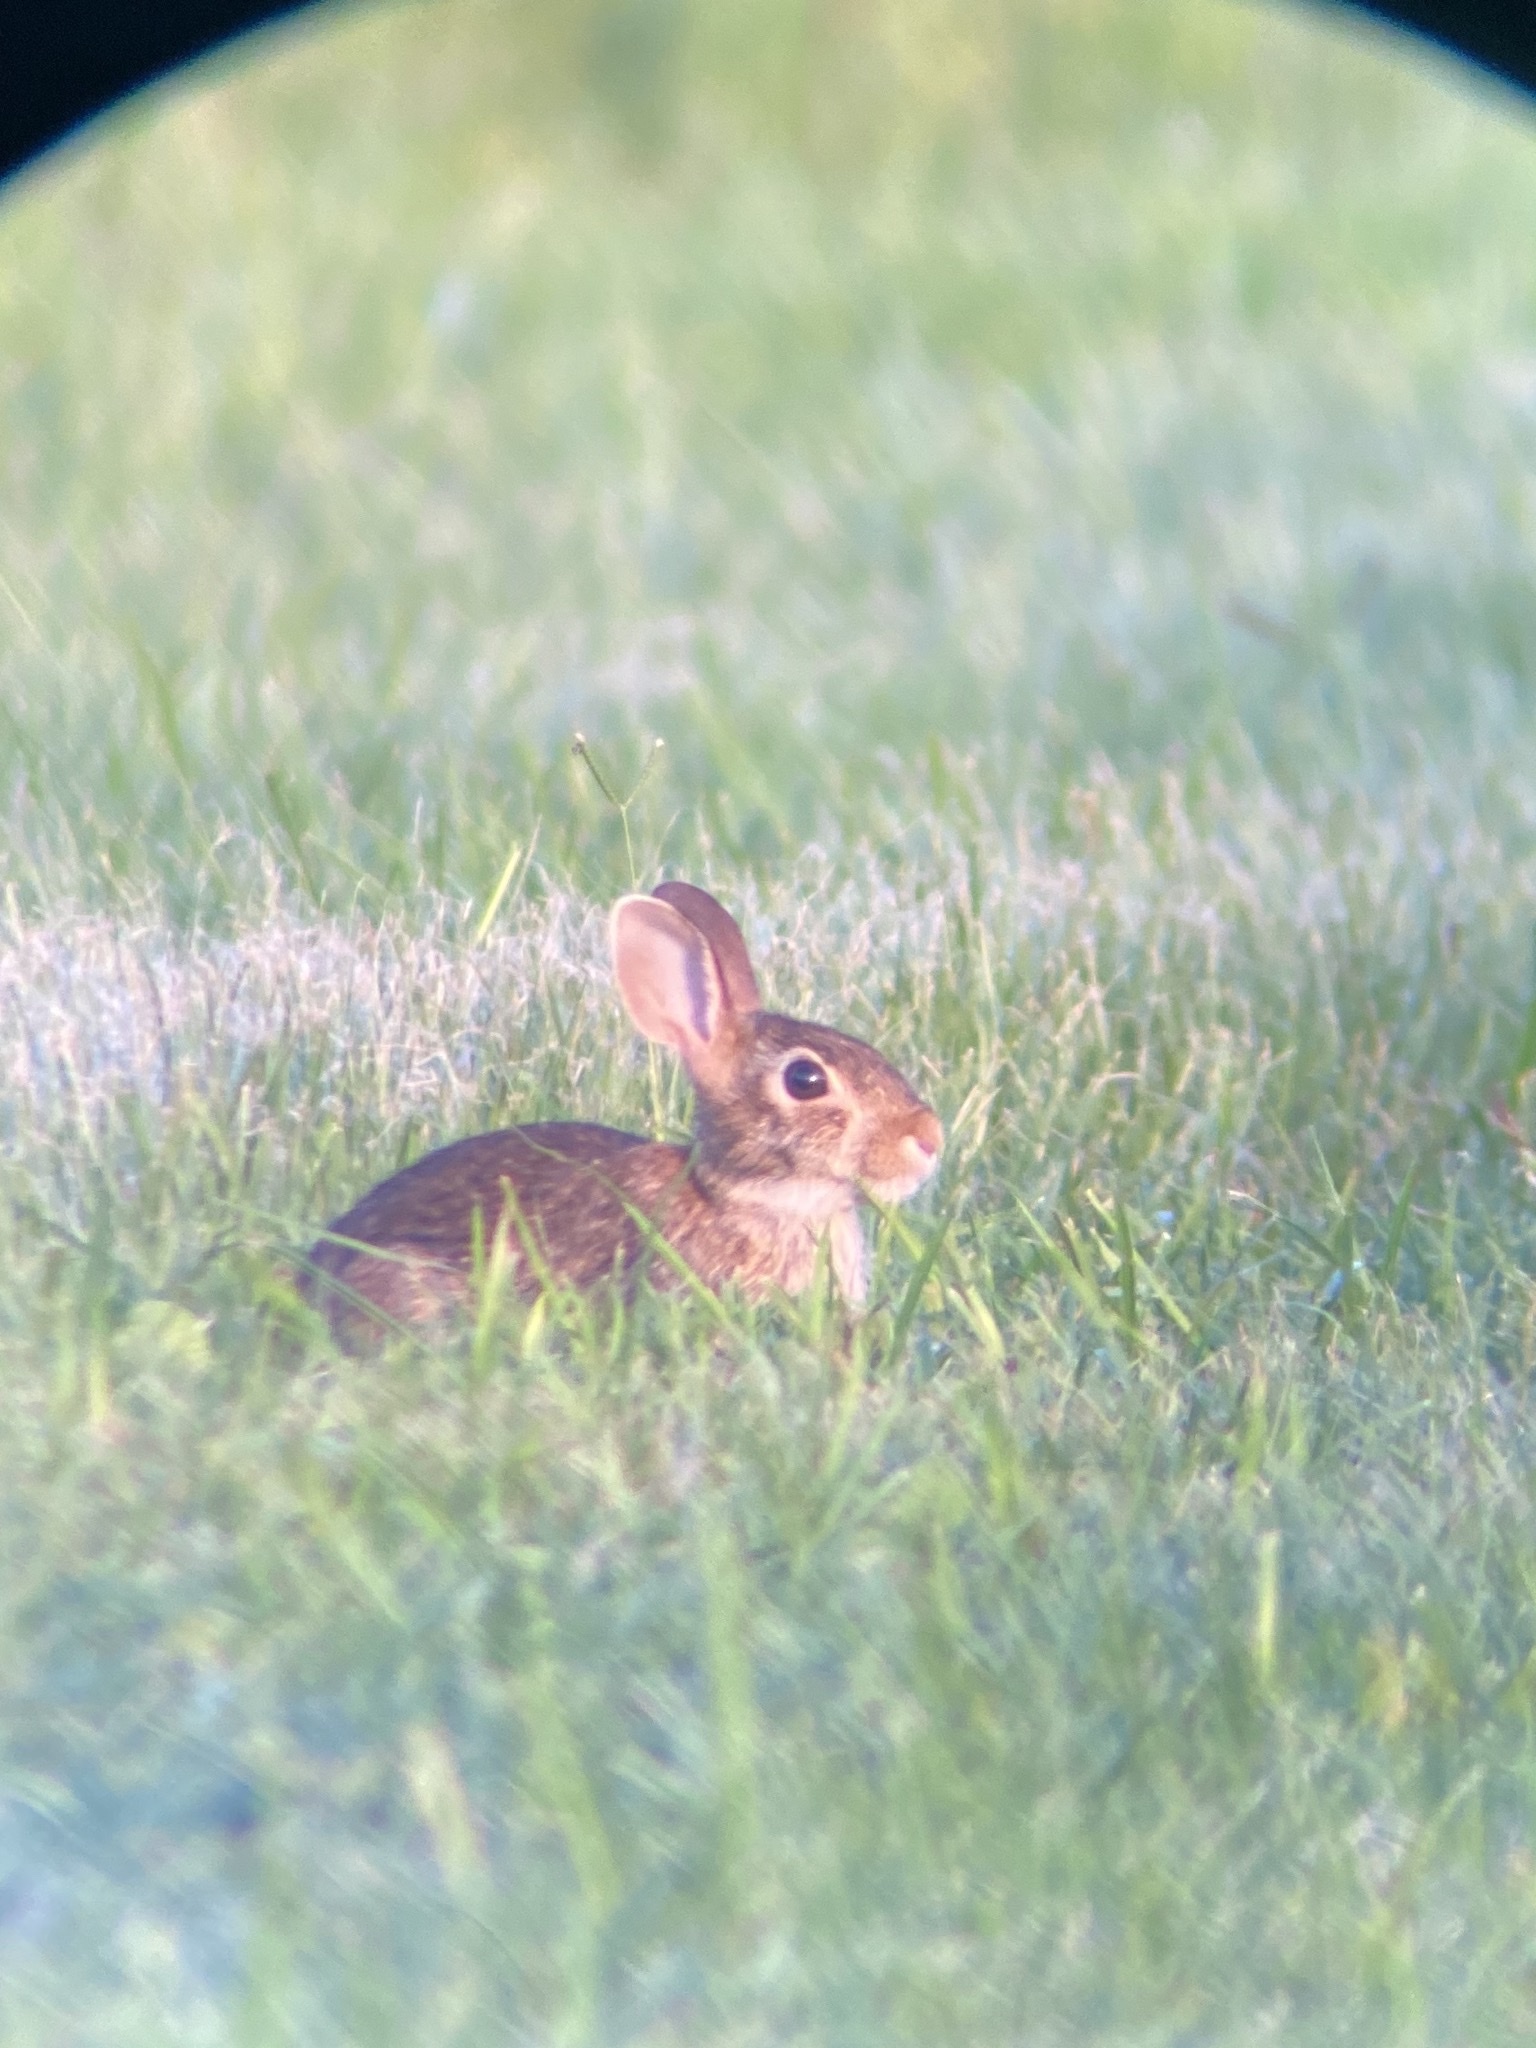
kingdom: Animalia
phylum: Chordata
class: Mammalia
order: Lagomorpha
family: Leporidae
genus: Sylvilagus
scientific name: Sylvilagus floridanus
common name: Eastern cottontail
